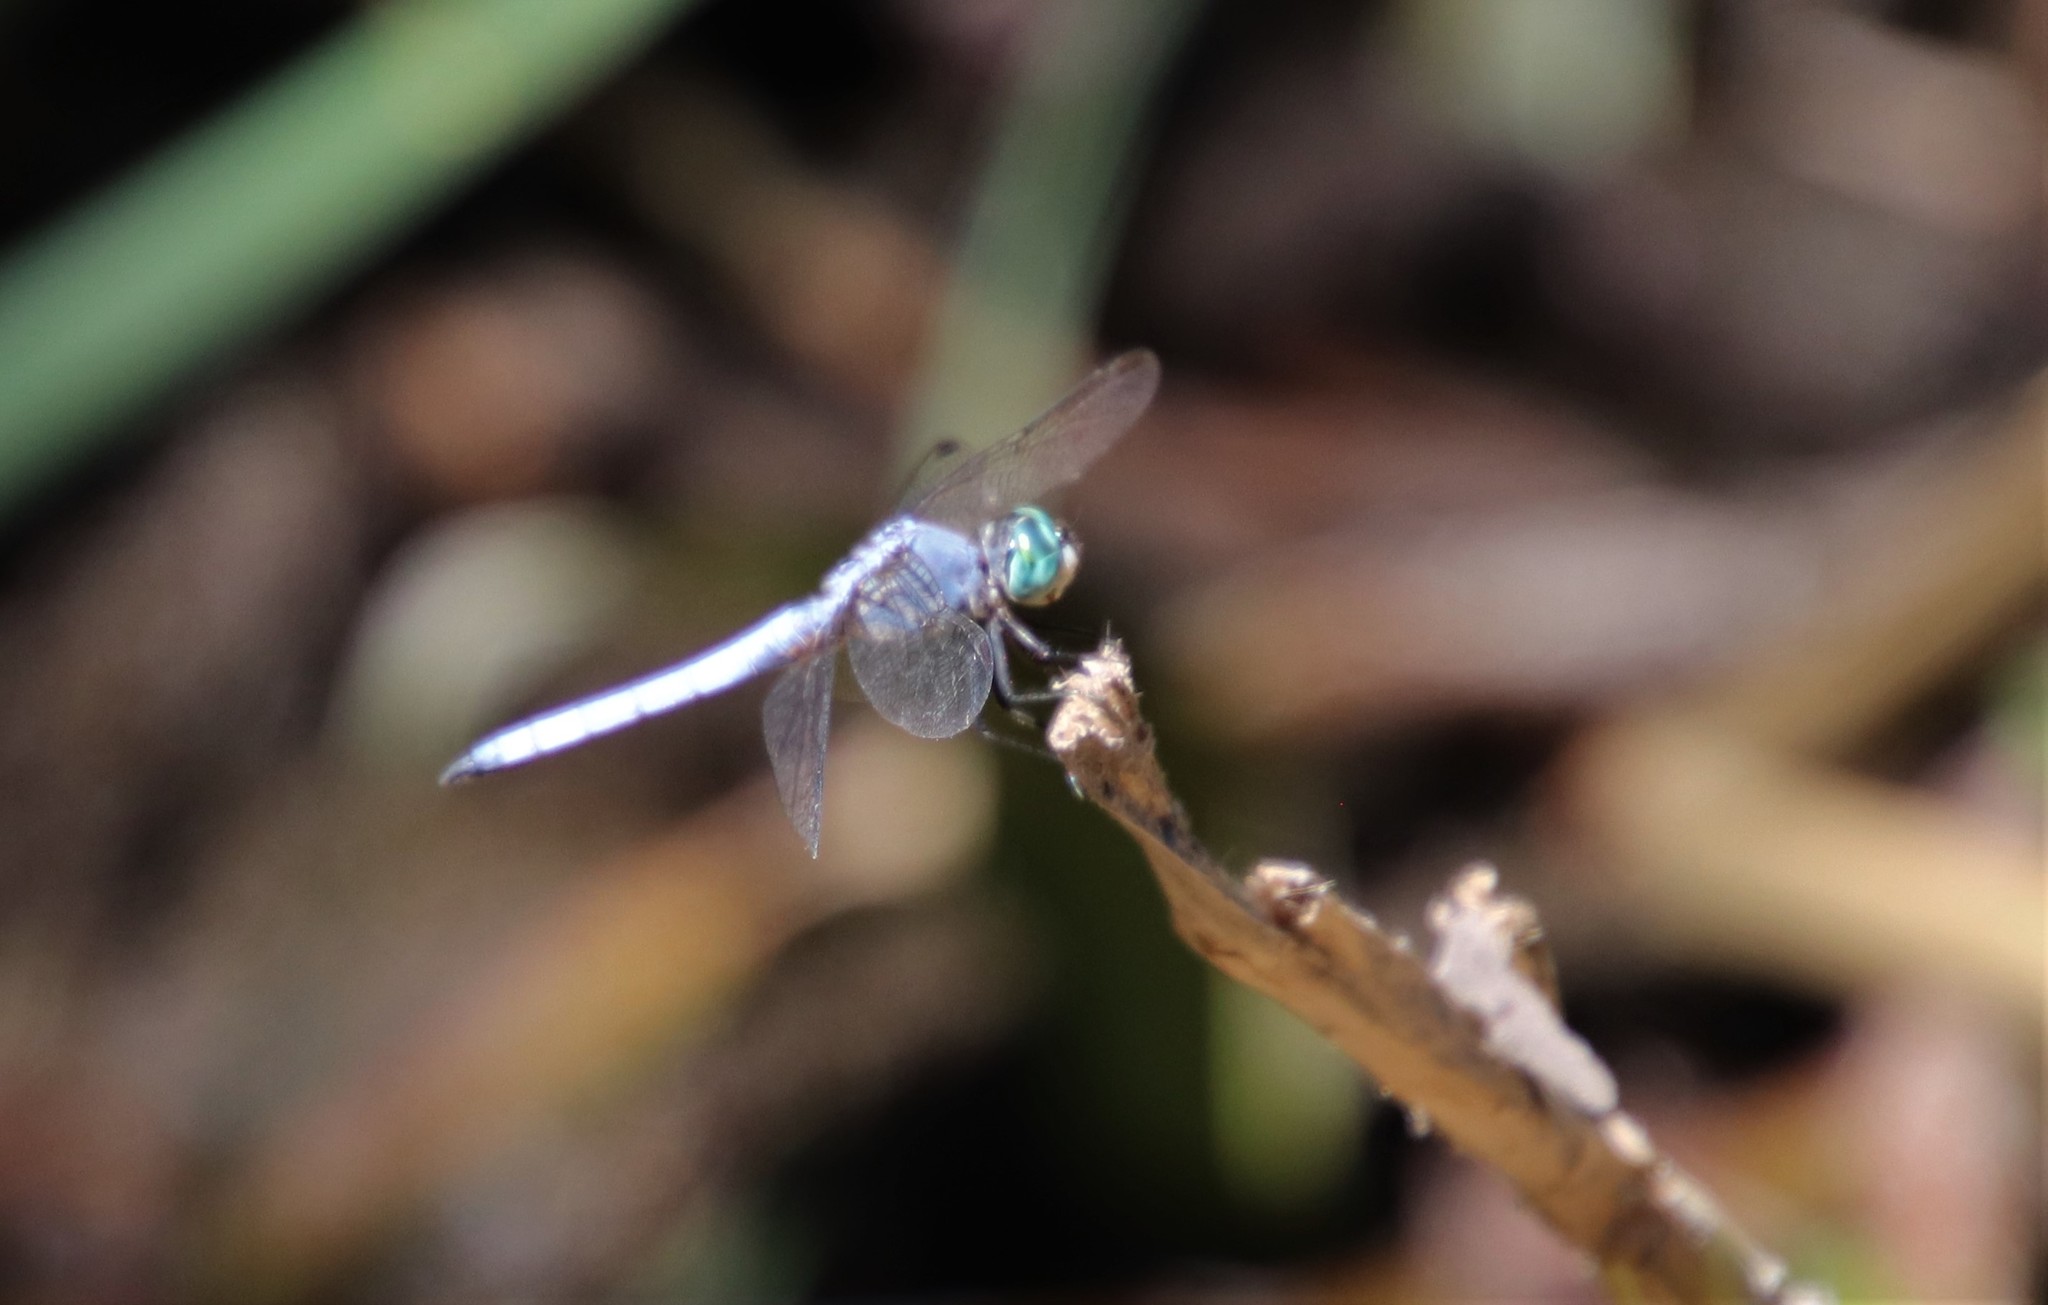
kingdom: Animalia
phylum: Arthropoda
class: Insecta
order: Odonata
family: Libellulidae
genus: Pachydiplax
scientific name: Pachydiplax longipennis
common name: Blue dasher
